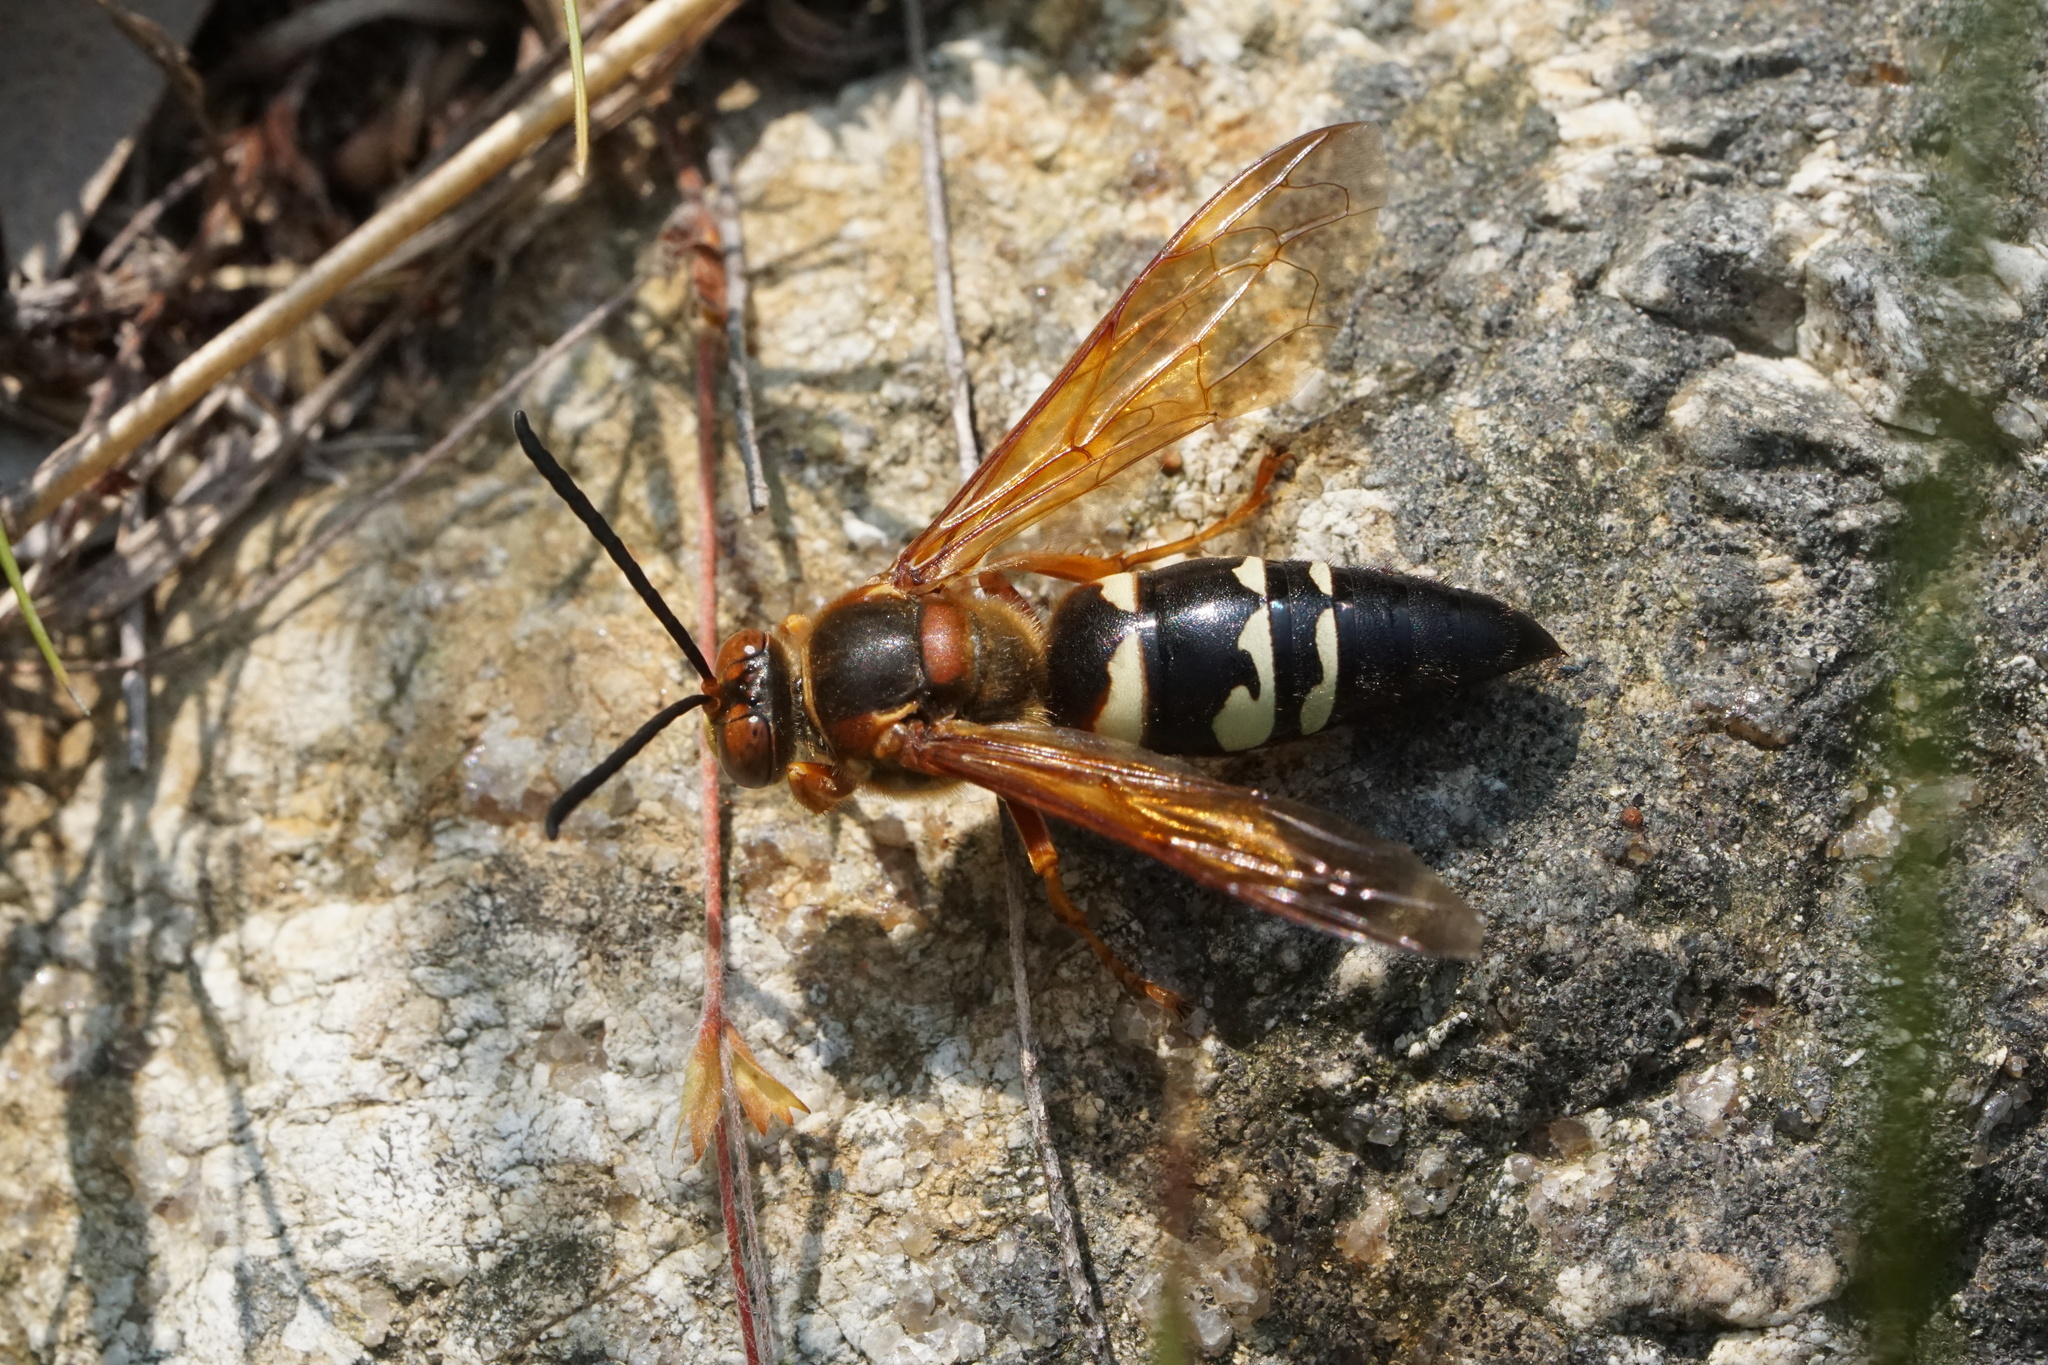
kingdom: Animalia
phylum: Arthropoda
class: Insecta
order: Hymenoptera
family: Crabronidae
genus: Sphecius
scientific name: Sphecius speciosus
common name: Cicada killer
